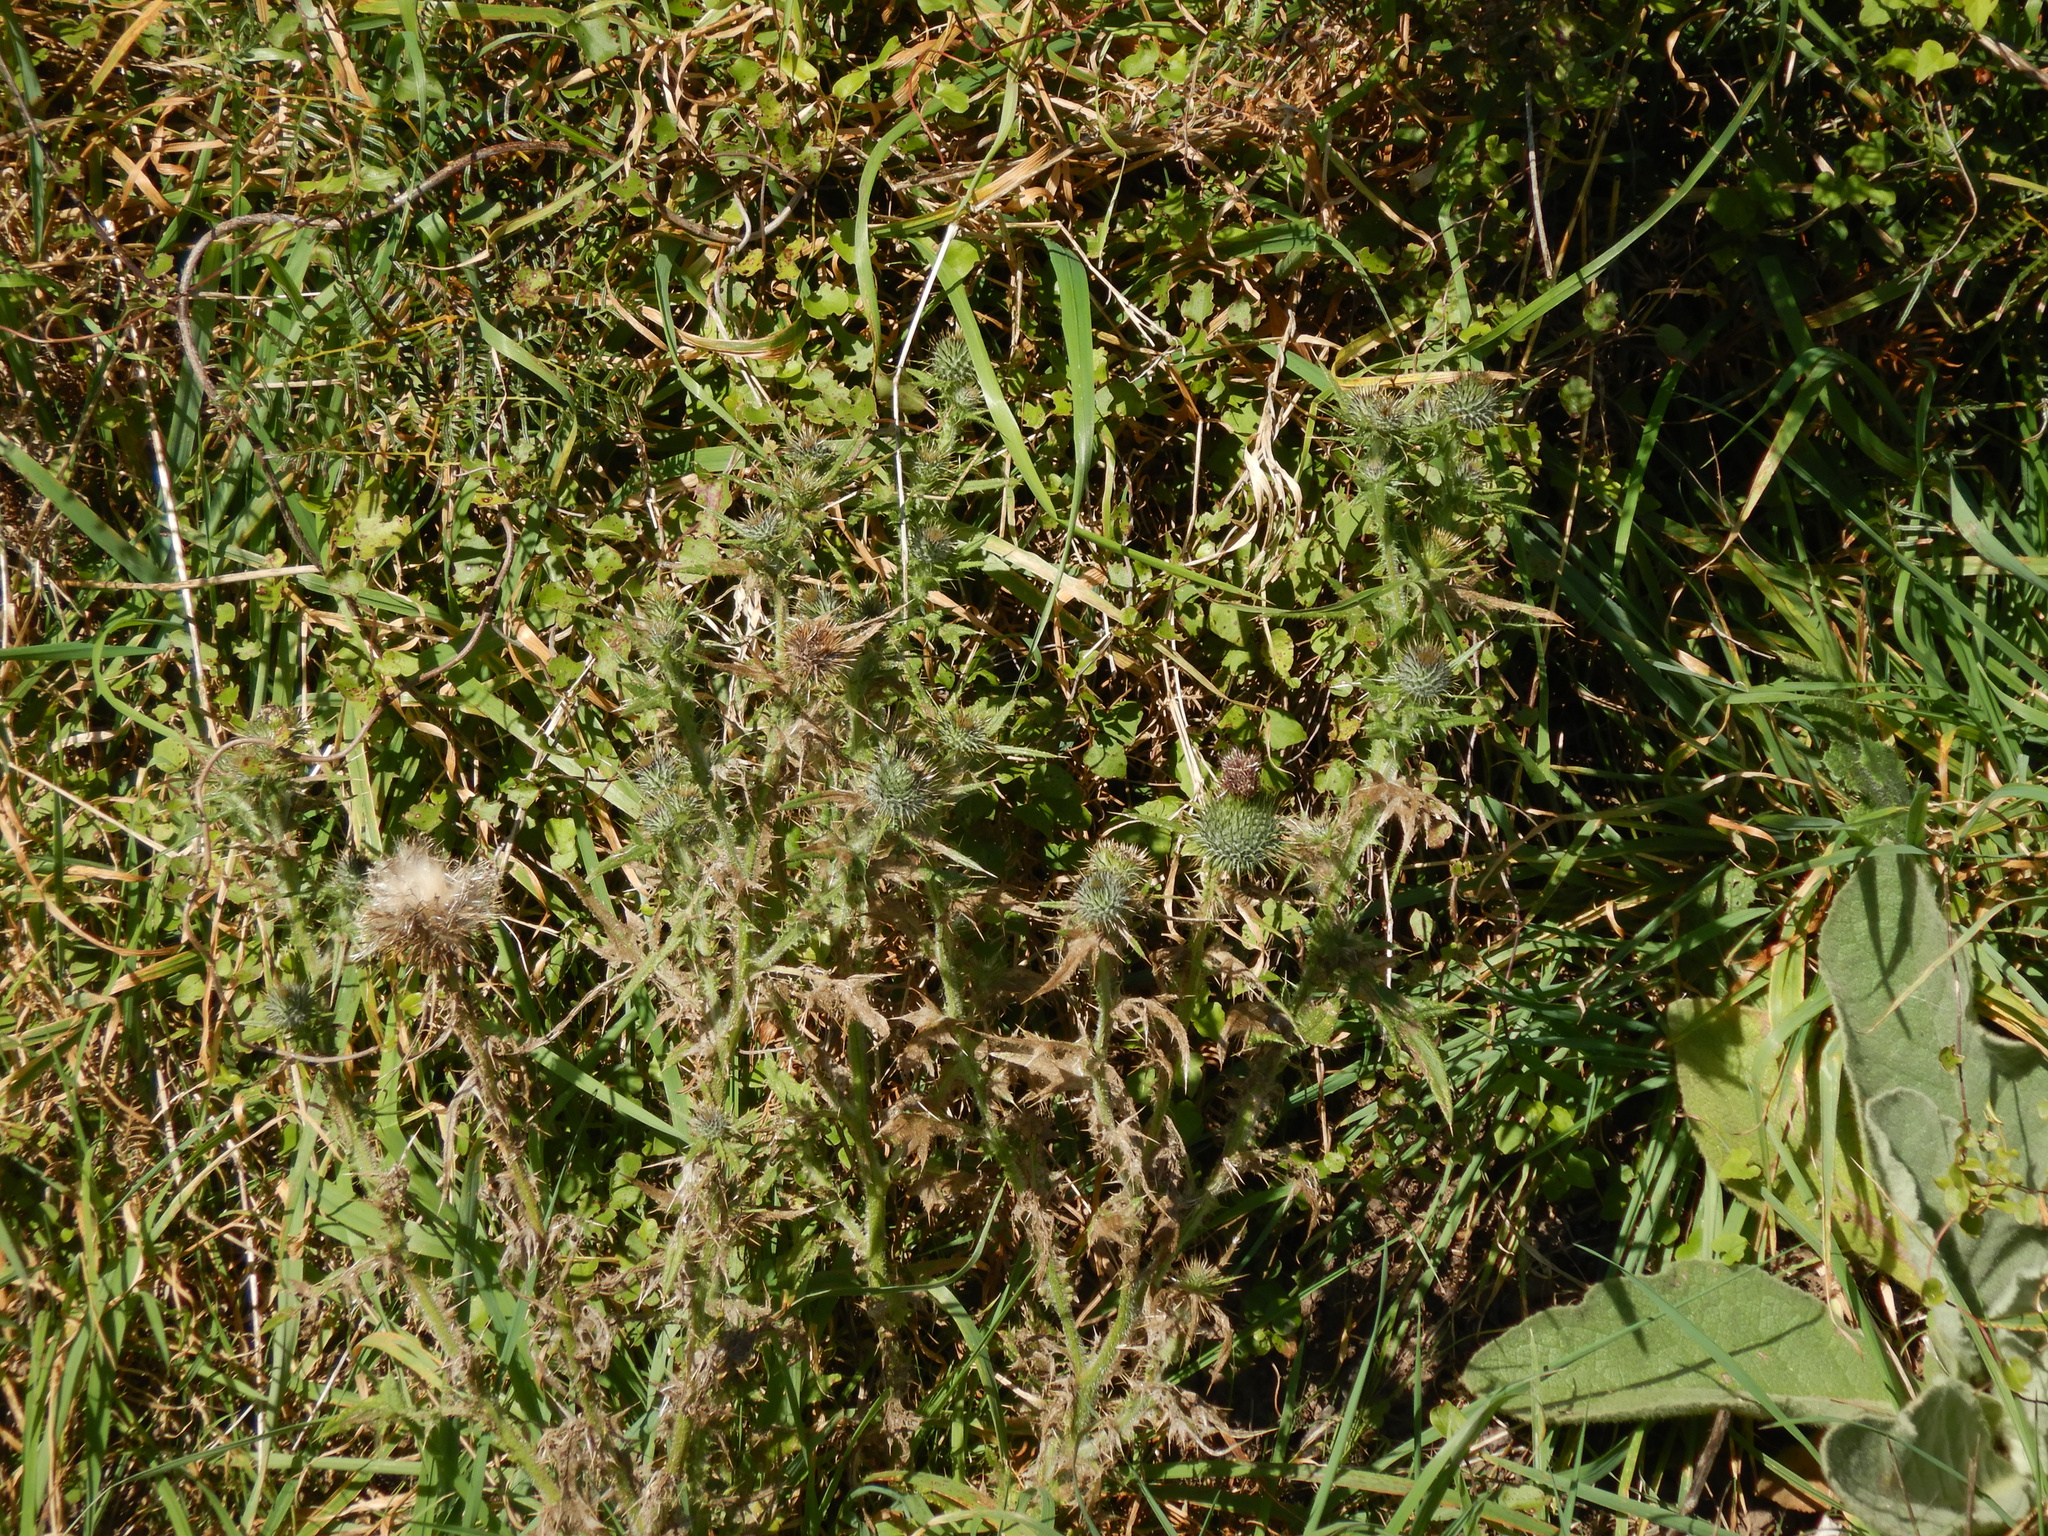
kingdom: Plantae
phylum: Tracheophyta
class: Magnoliopsida
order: Asterales
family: Asteraceae
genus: Cirsium
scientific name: Cirsium vulgare
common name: Bull thistle
